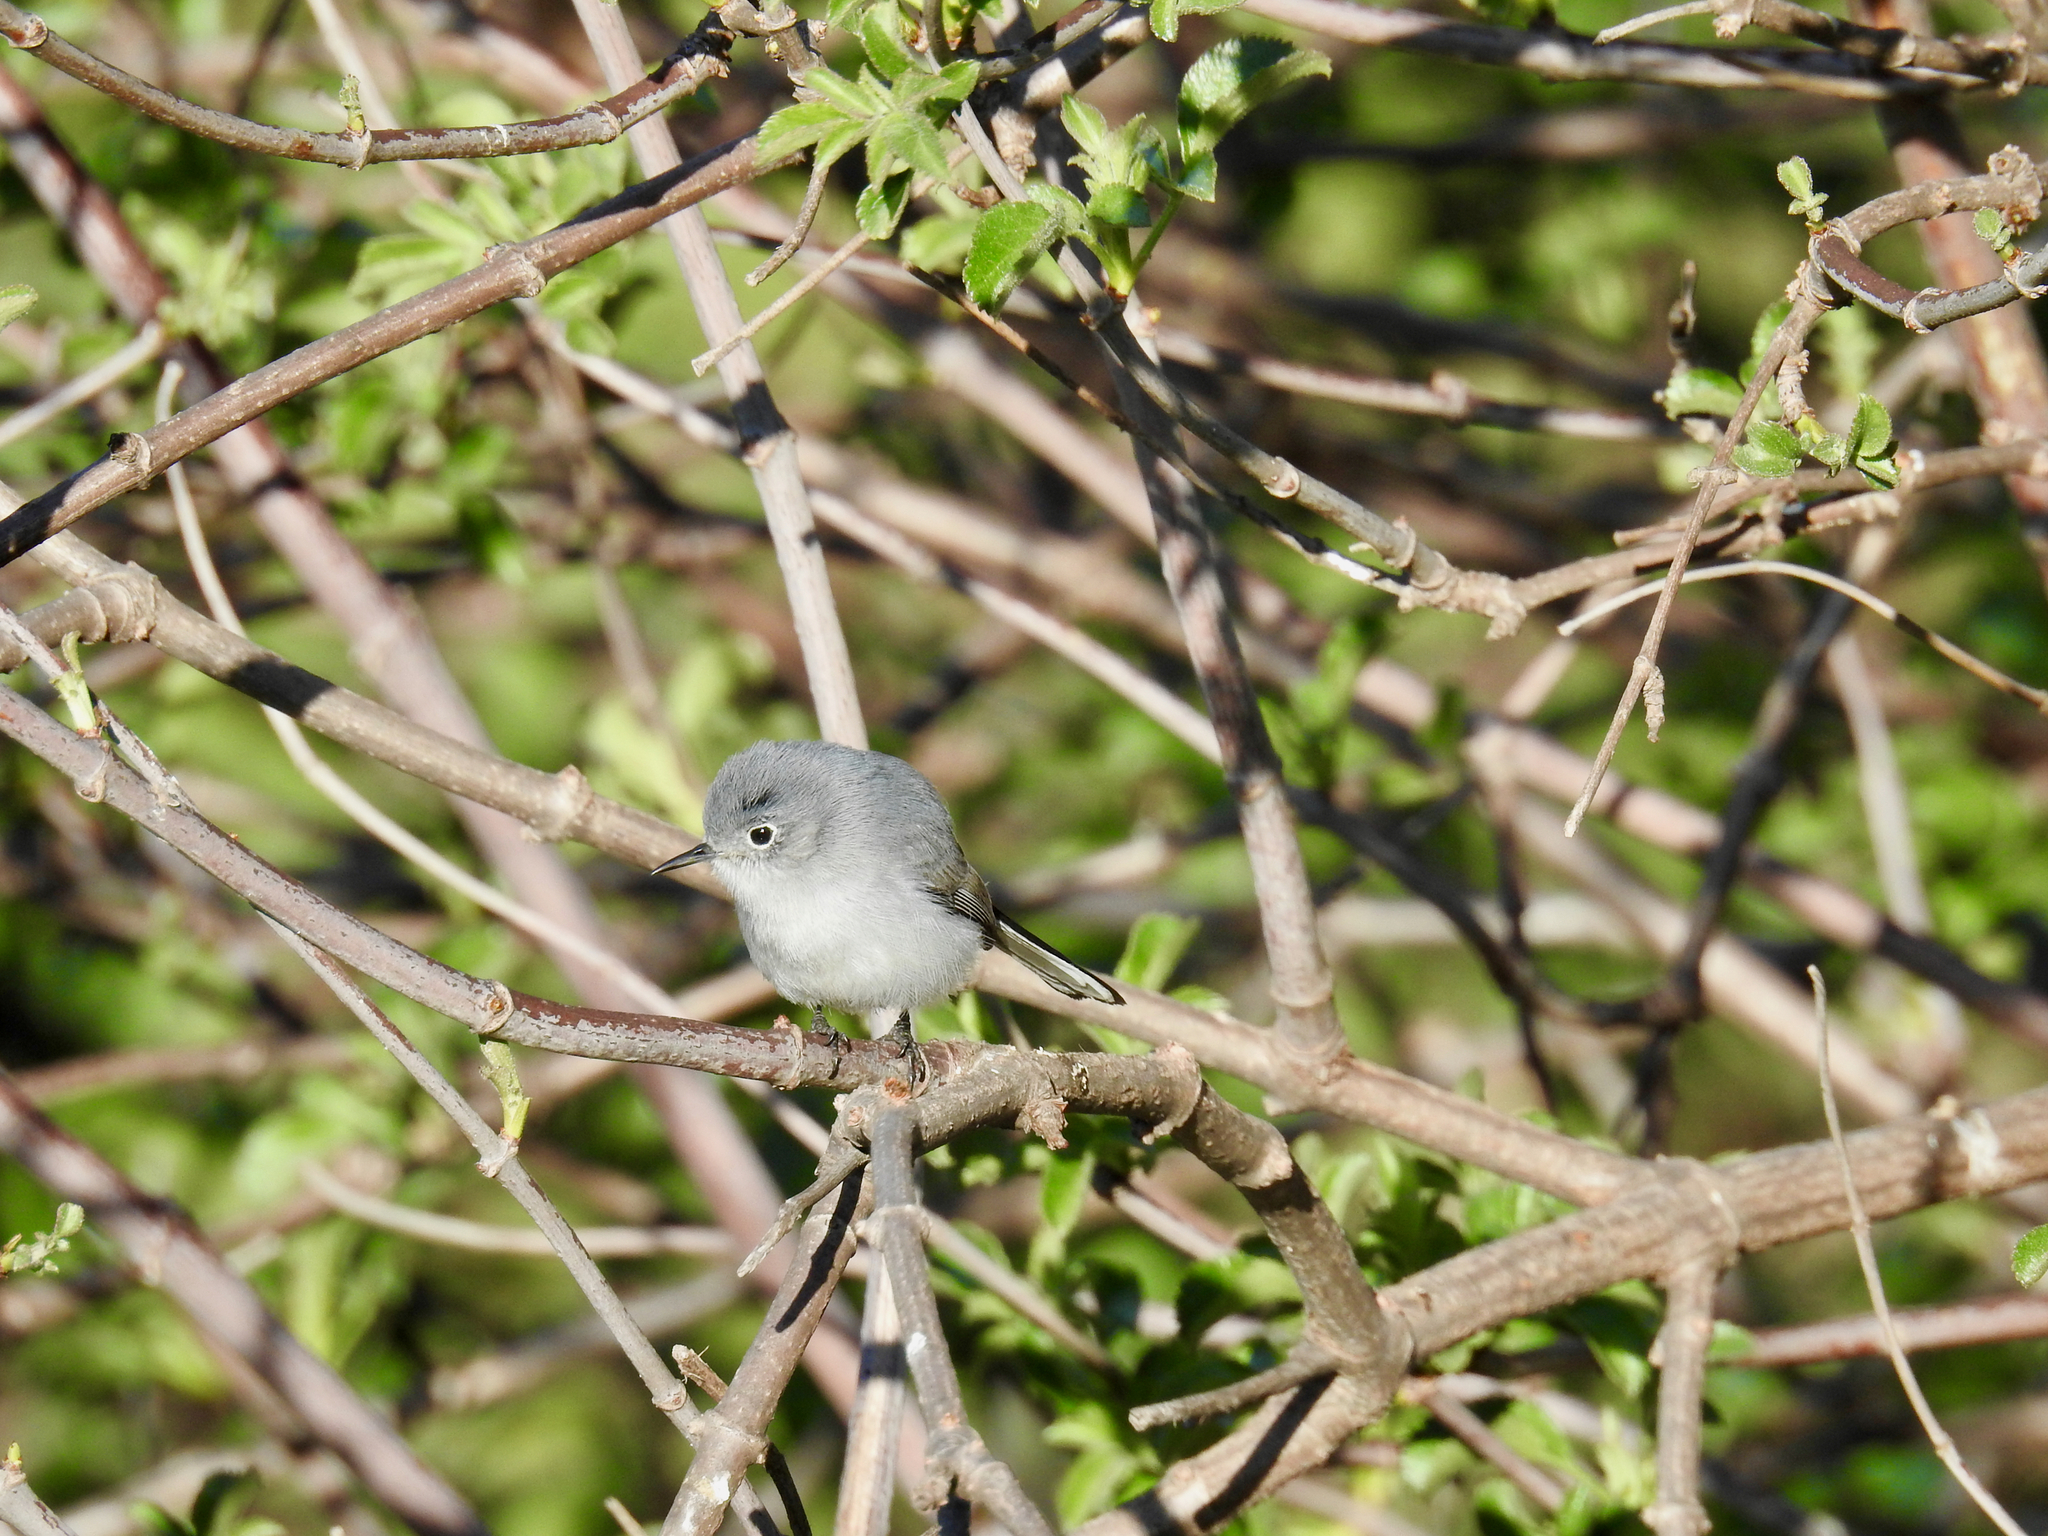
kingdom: Animalia
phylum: Chordata
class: Aves
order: Passeriformes
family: Polioptilidae
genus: Polioptila
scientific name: Polioptila caerulea
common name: Blue-gray gnatcatcher
